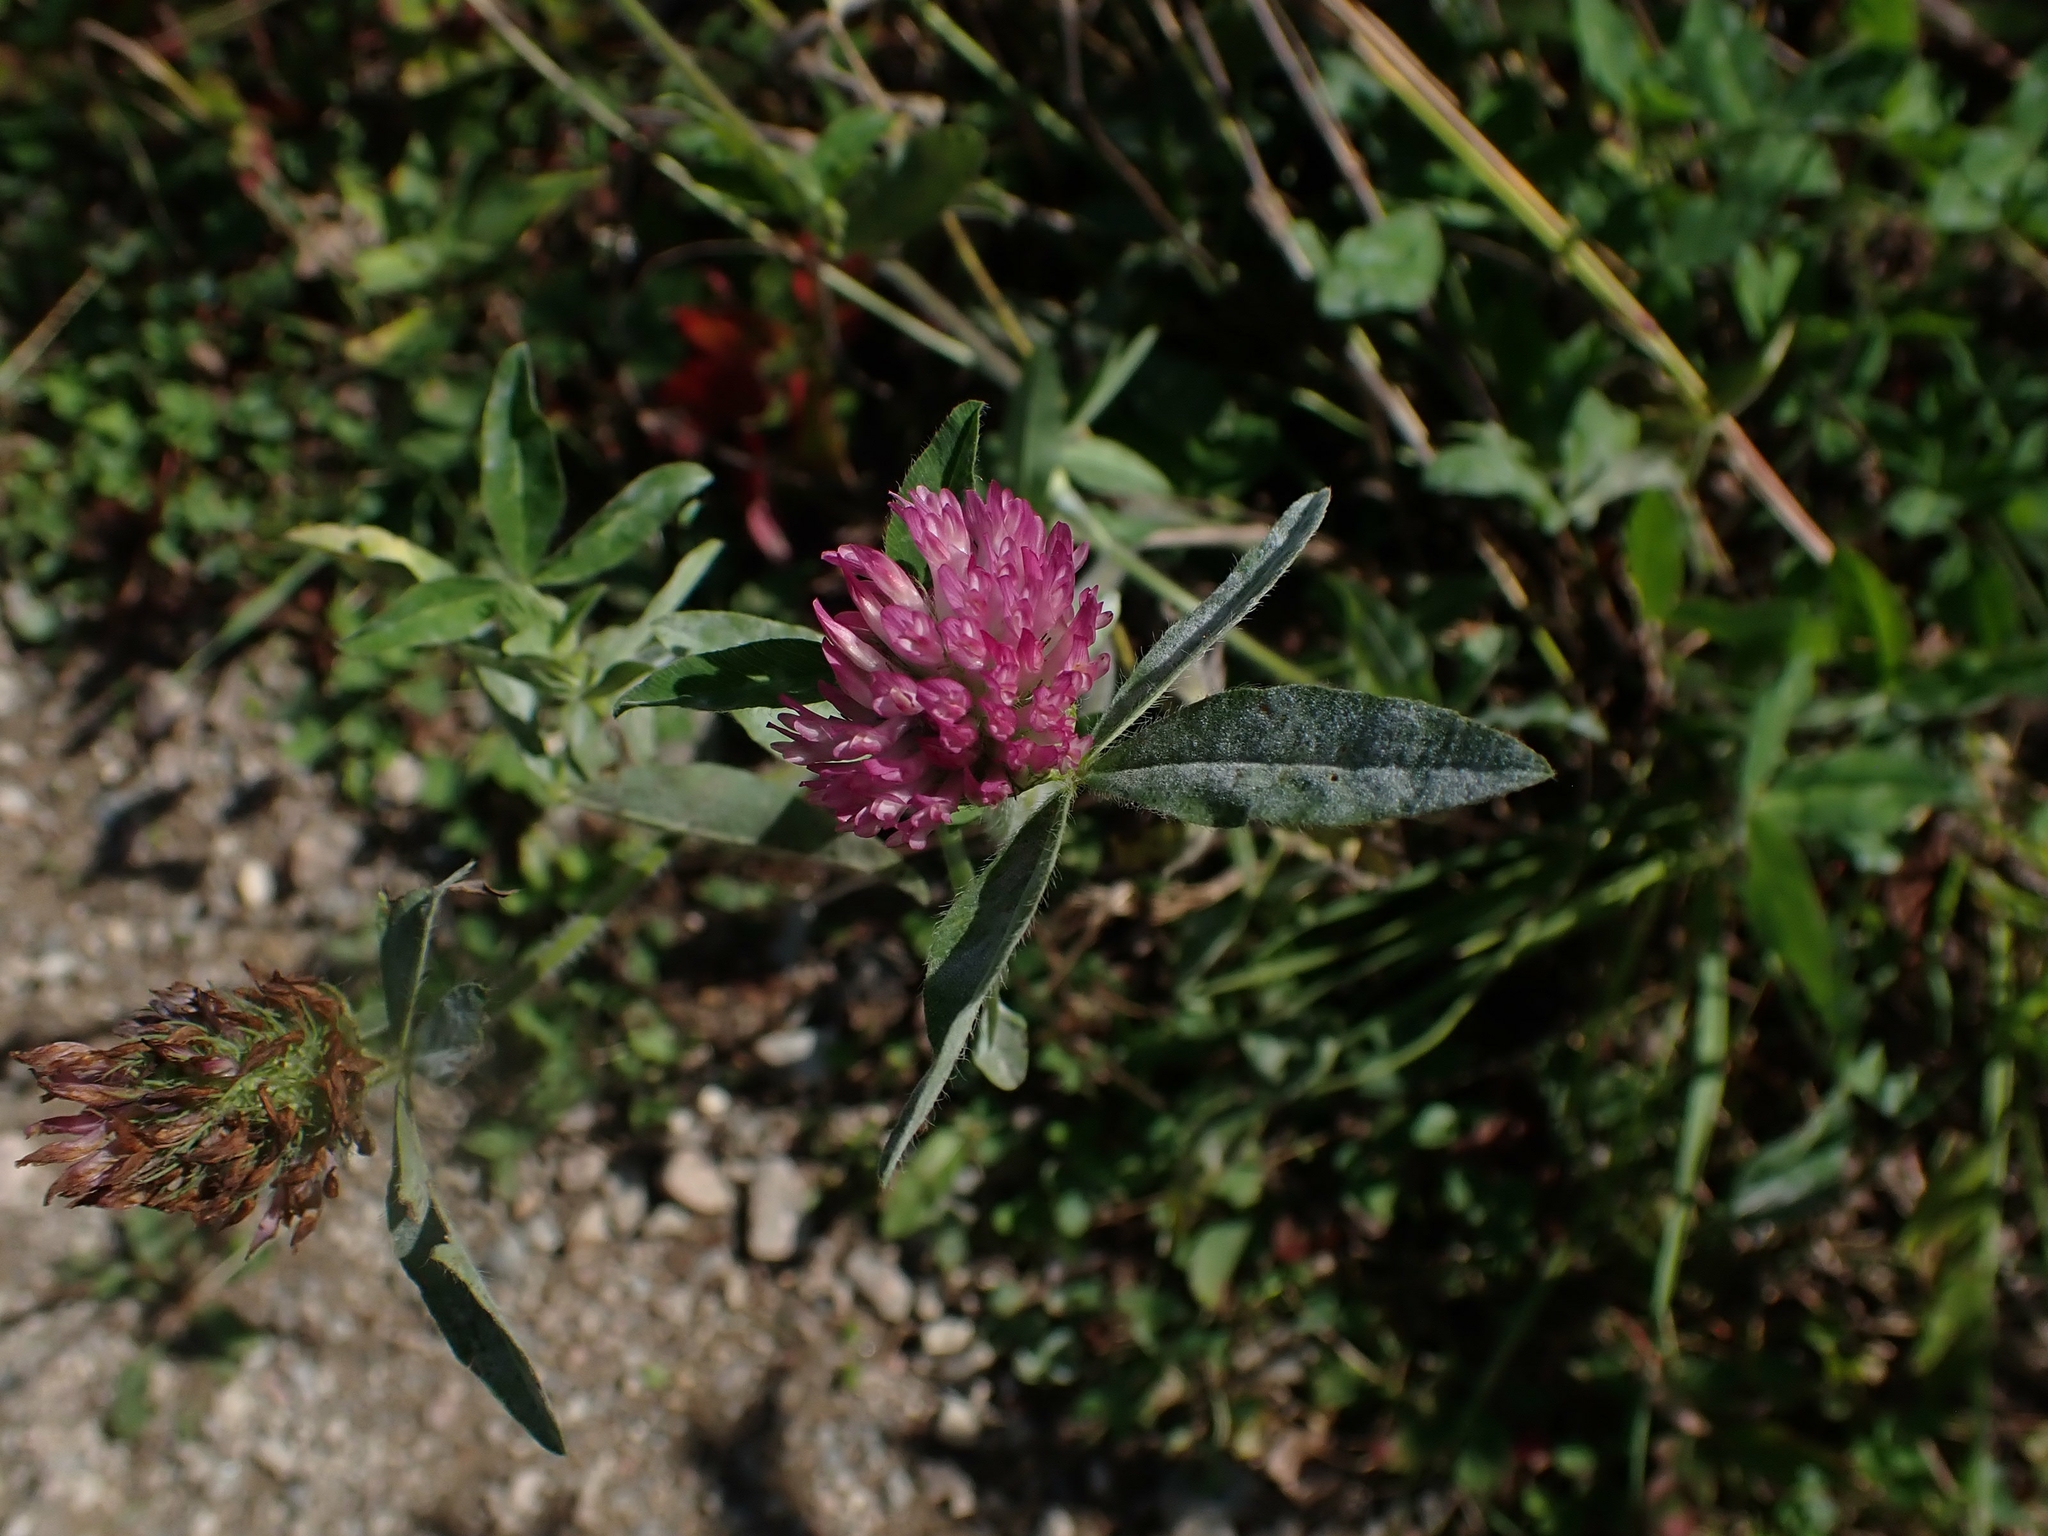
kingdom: Plantae
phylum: Tracheophyta
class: Magnoliopsida
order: Fabales
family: Fabaceae
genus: Trifolium
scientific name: Trifolium pratense
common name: Red clover
